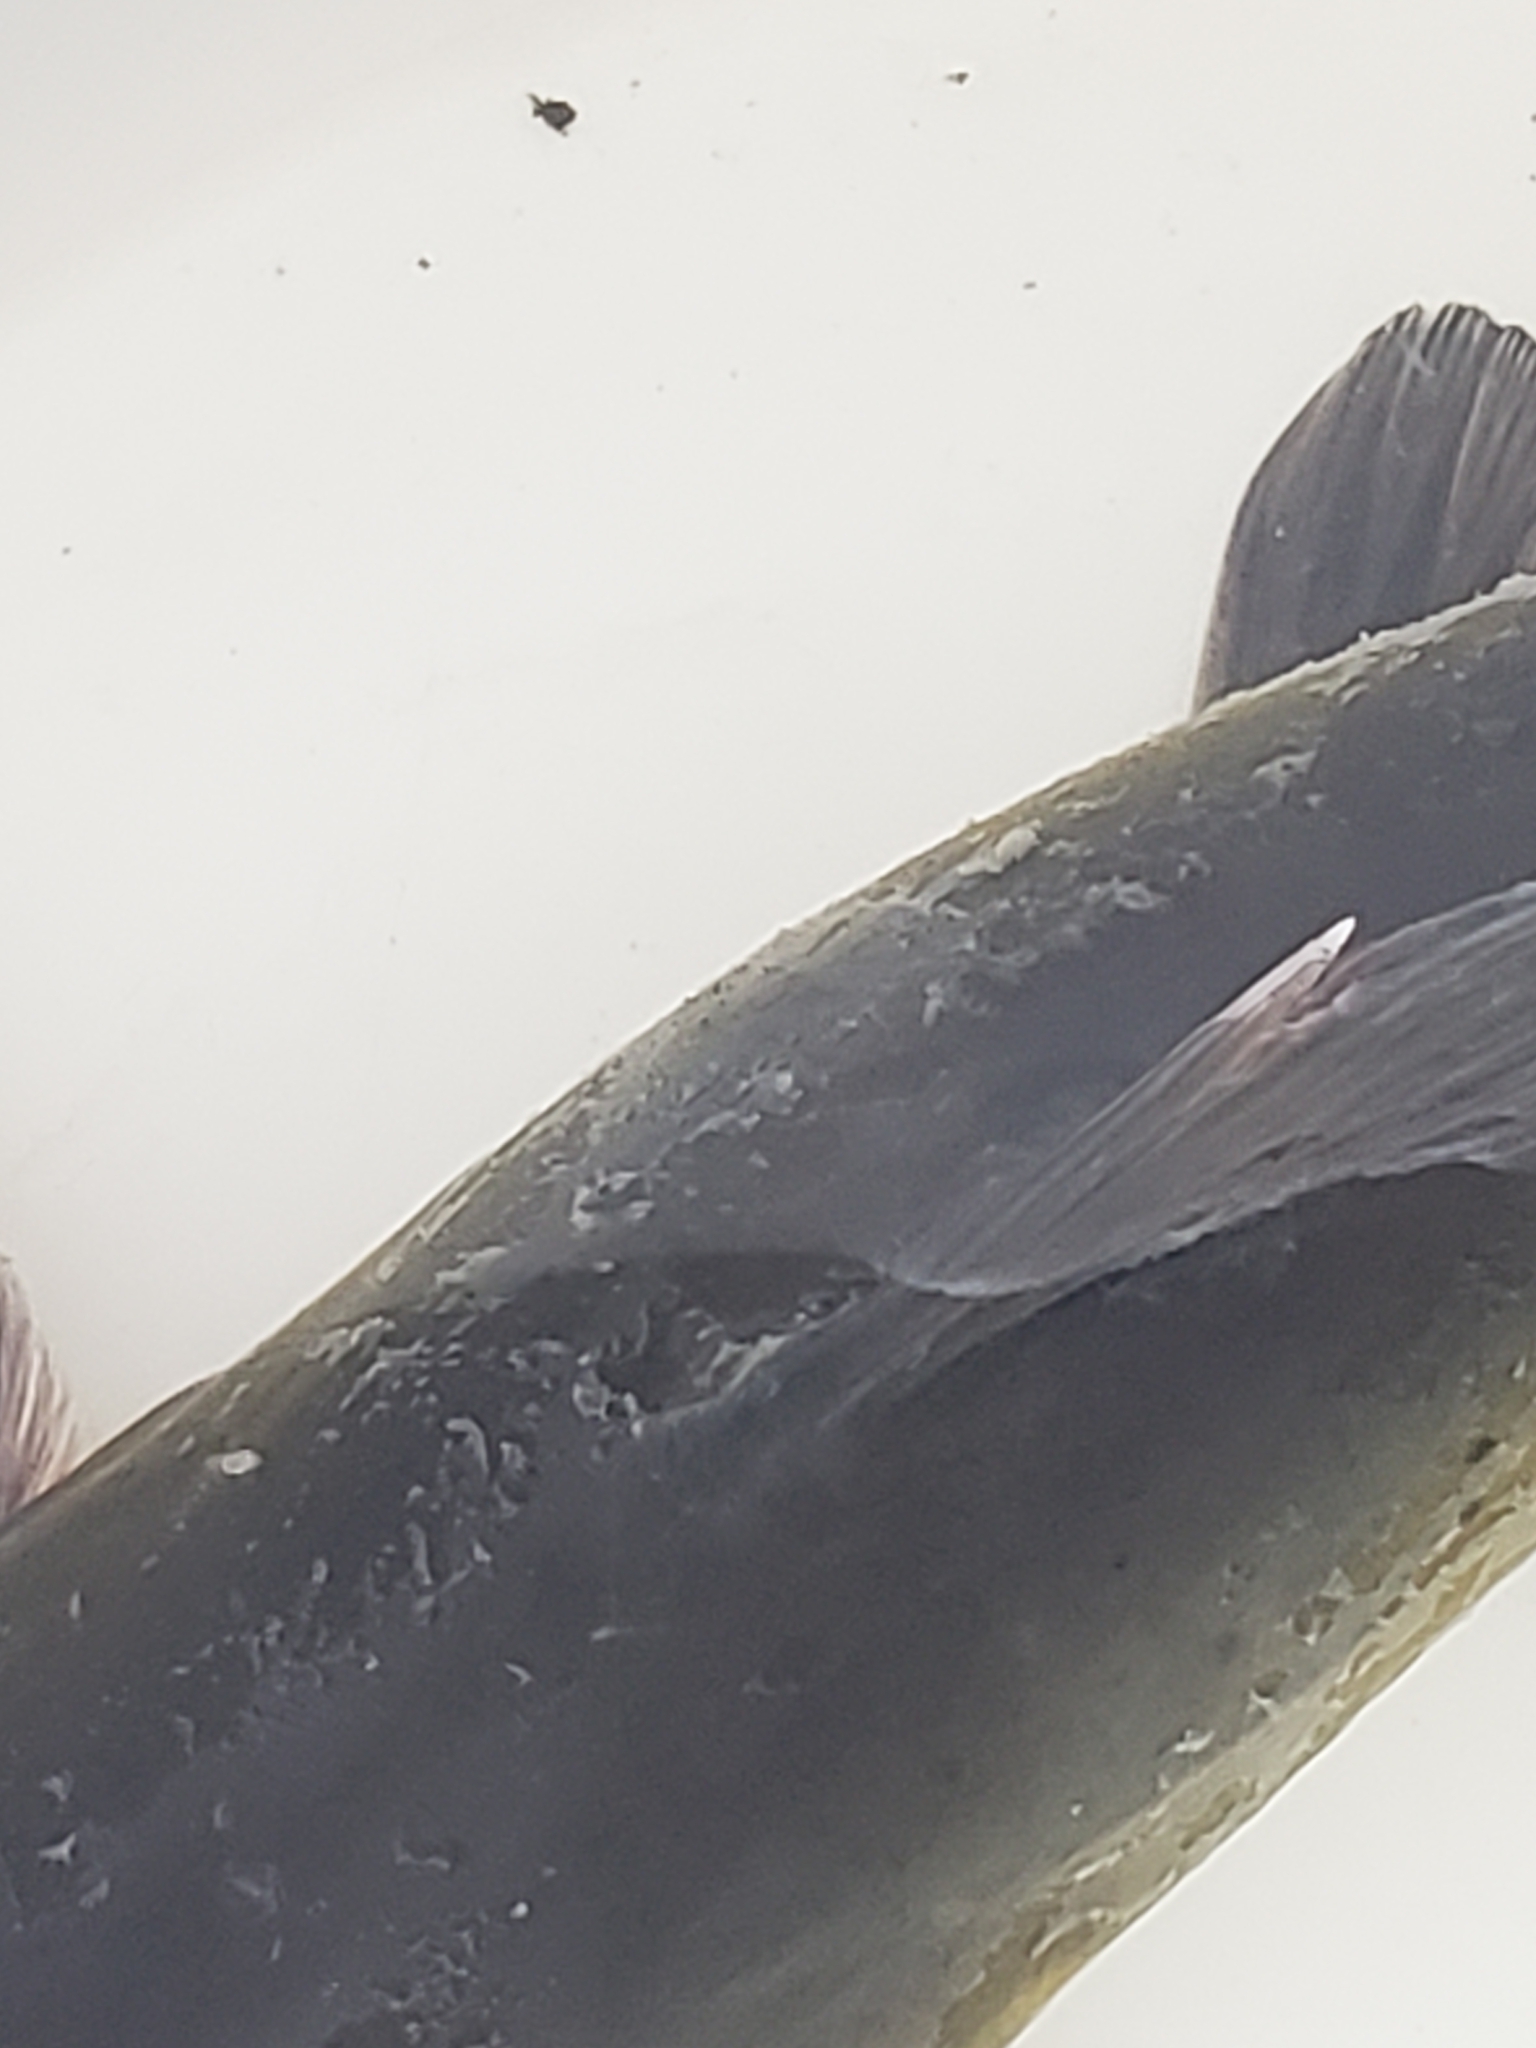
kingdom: Animalia
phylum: Chordata
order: Siluriformes
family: Ictaluridae
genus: Ictalurus
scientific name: Ictalurus punctatus
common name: Channel catfish
